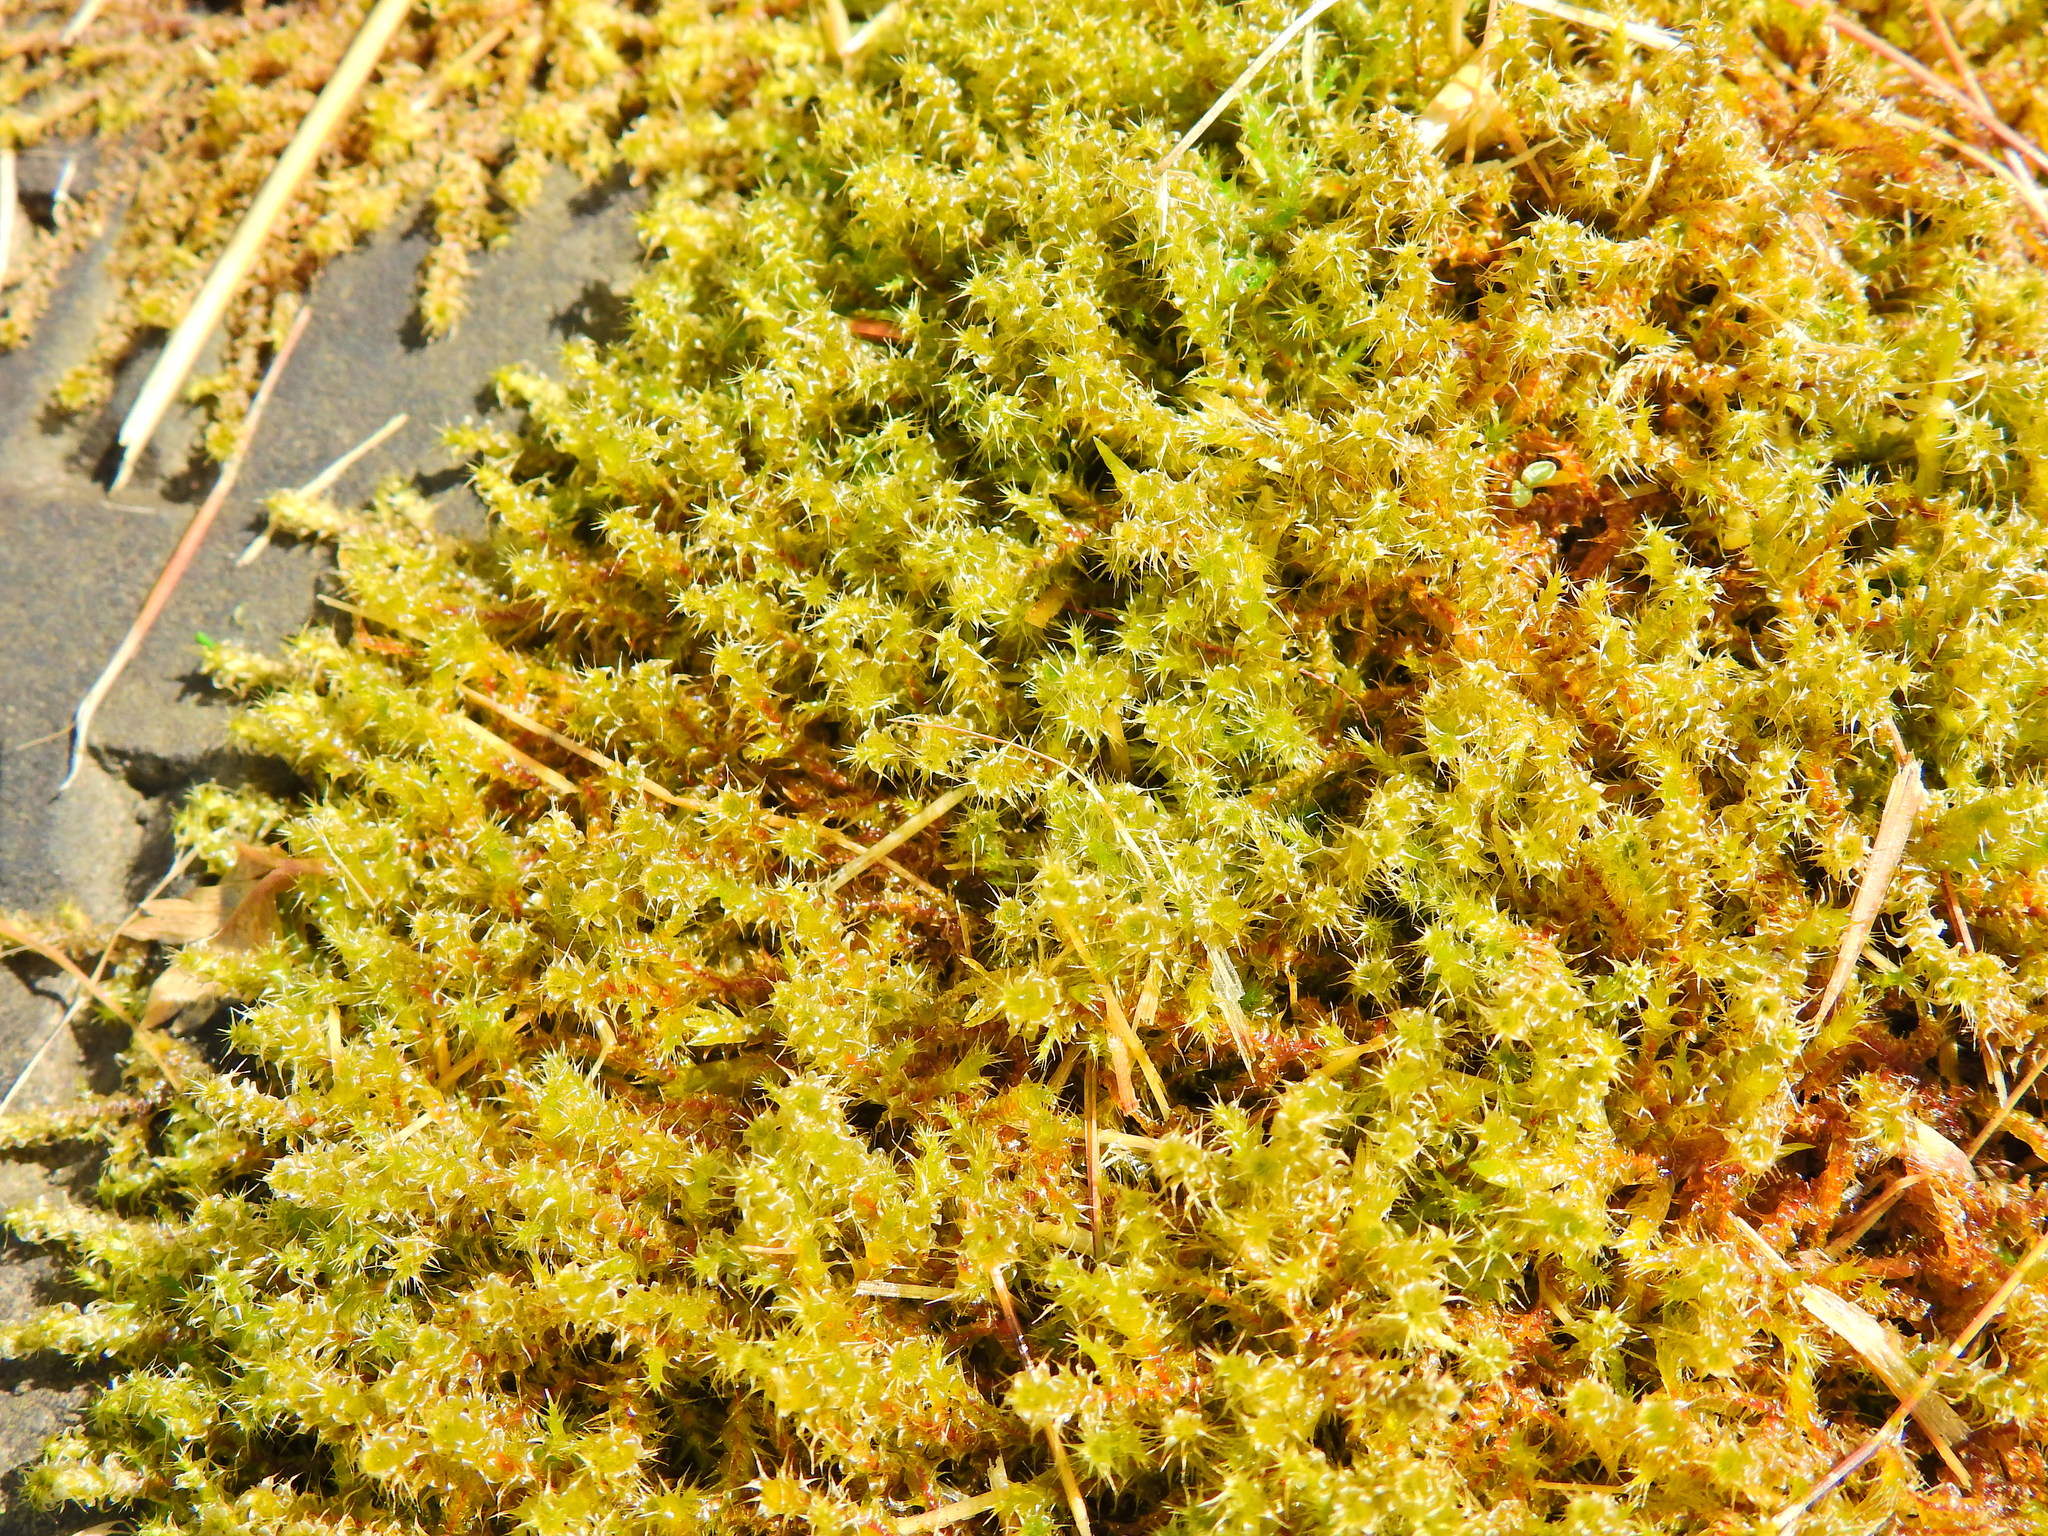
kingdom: Plantae
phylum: Bryophyta
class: Bryopsida
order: Hypnales
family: Hylocomiaceae
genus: Rhytidiadelphus
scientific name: Rhytidiadelphus squarrosus
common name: Springy turf-moss
